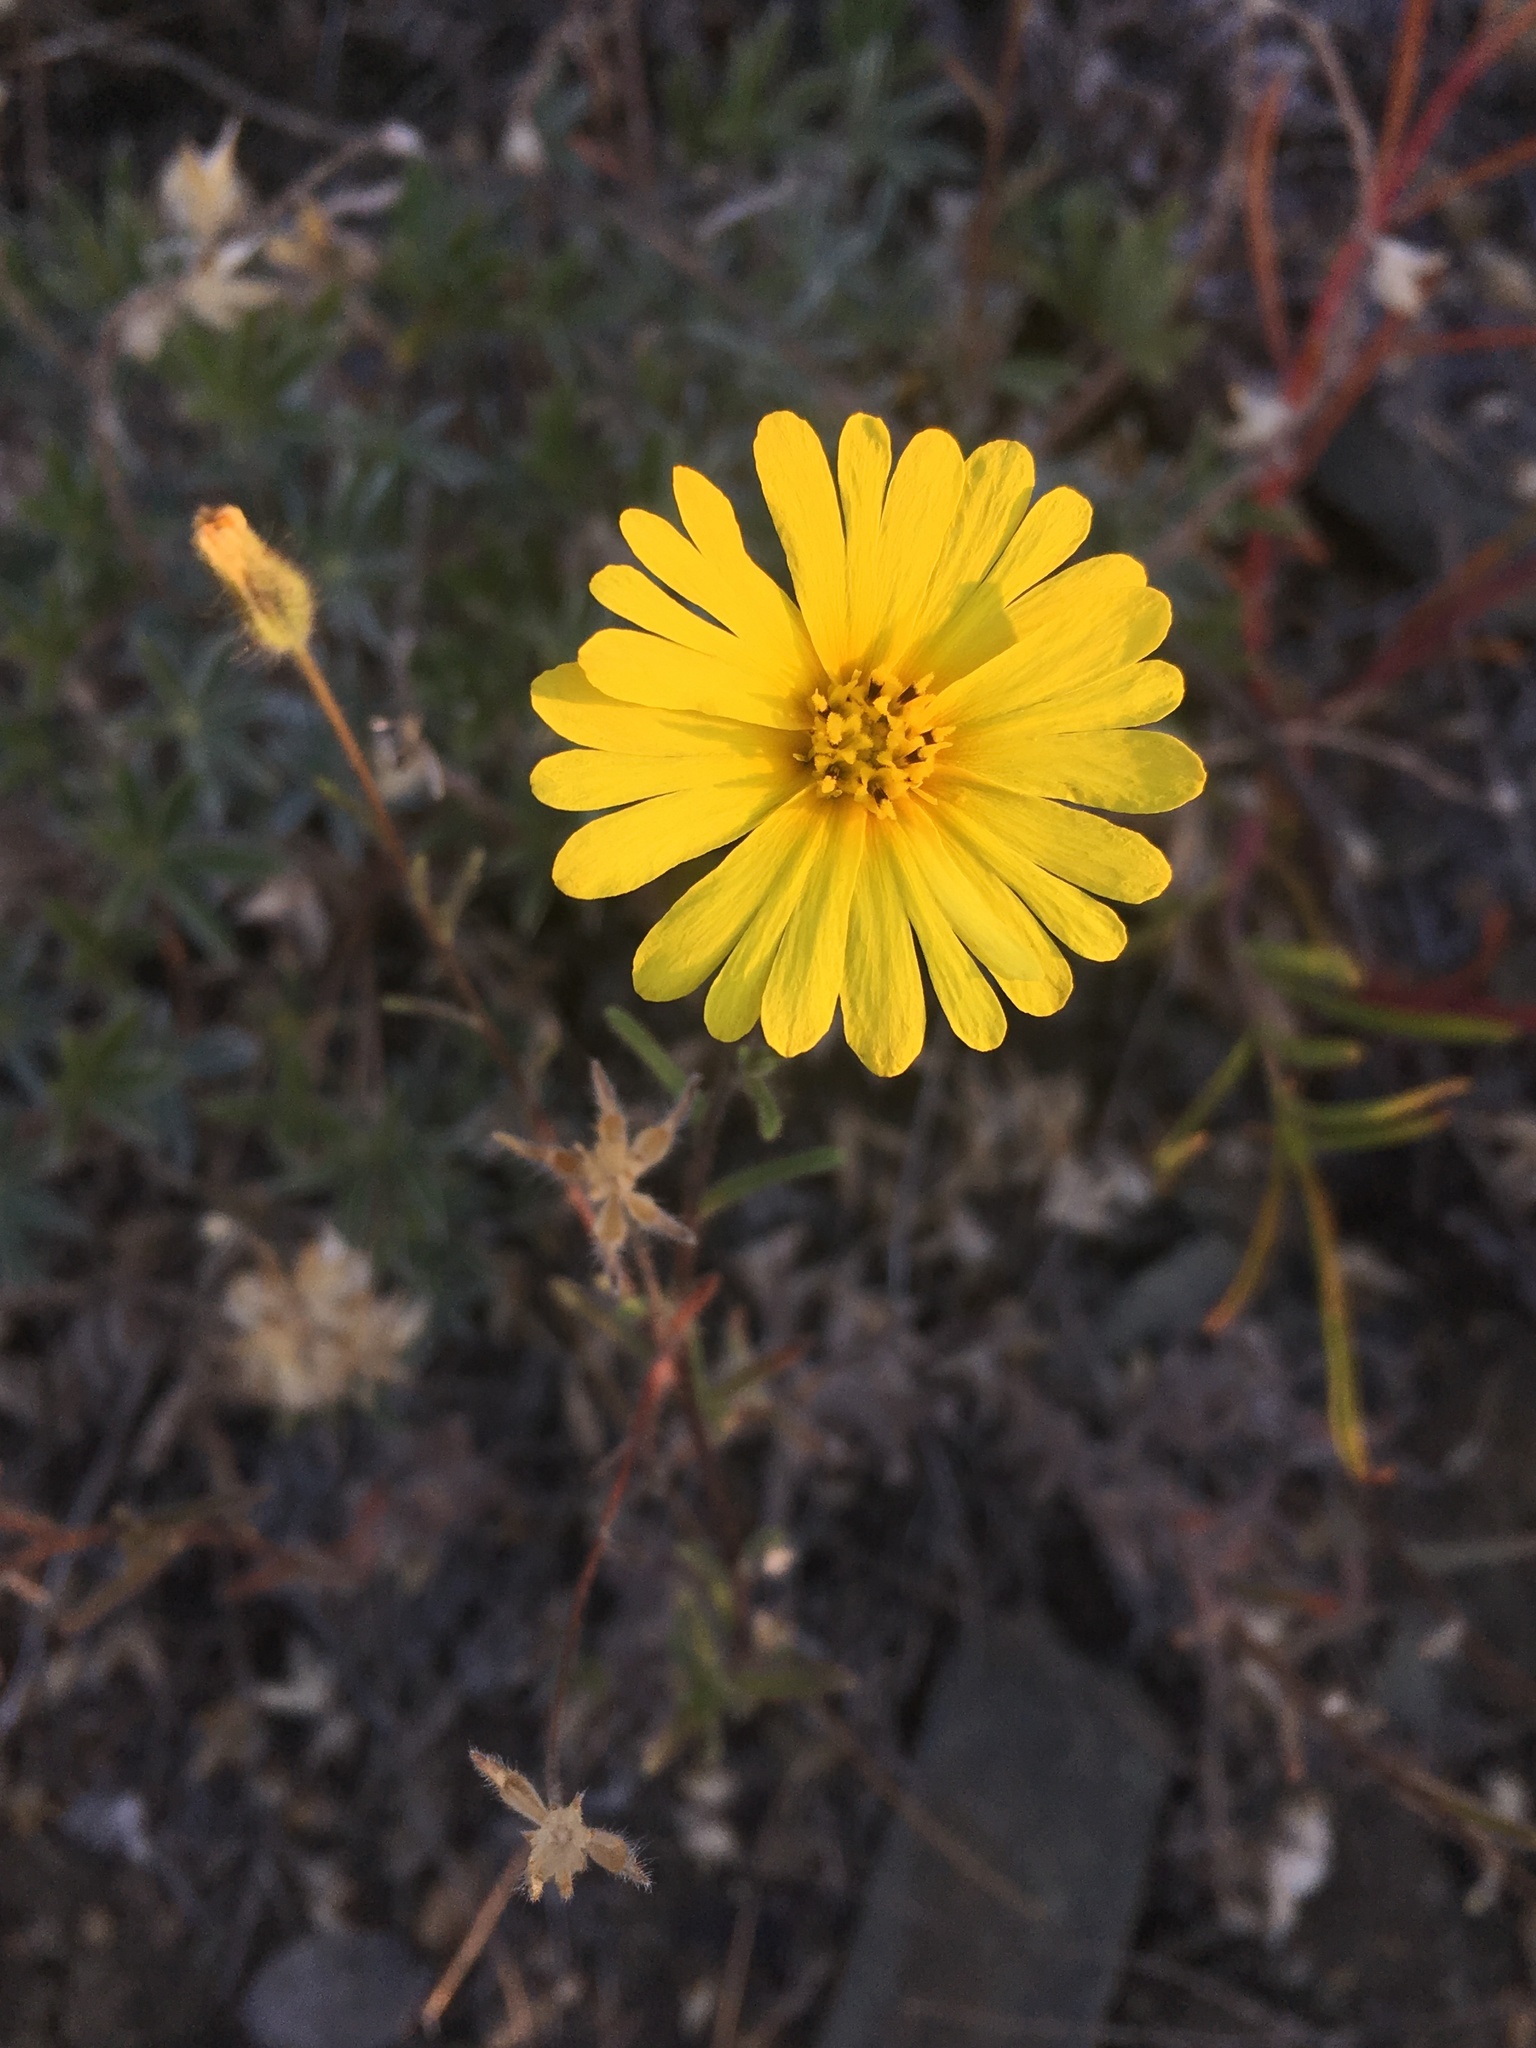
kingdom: Plantae
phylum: Tracheophyta
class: Magnoliopsida
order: Asterales
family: Asteraceae
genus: Madia
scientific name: Madia elegans
